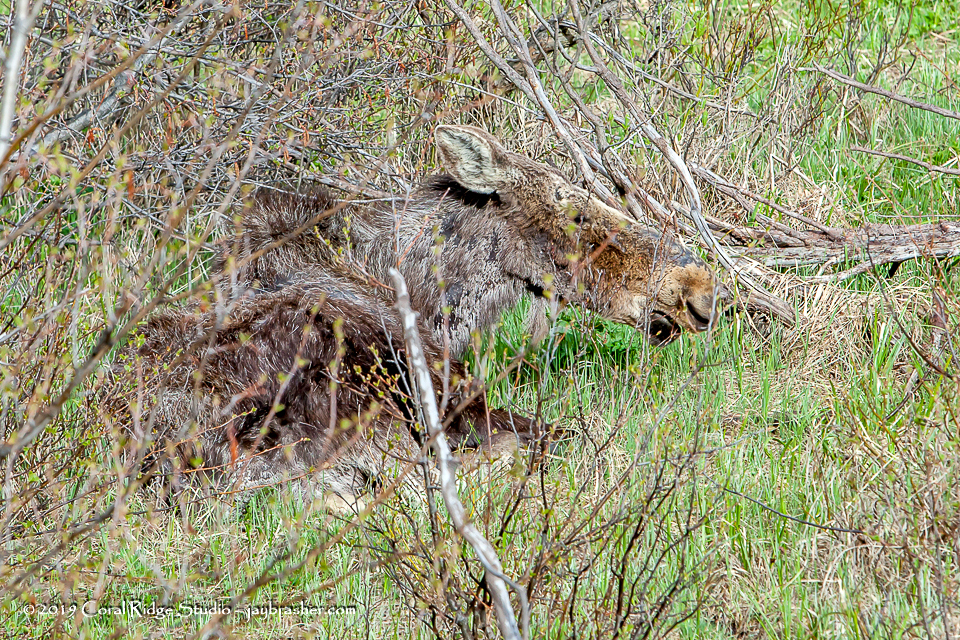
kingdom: Animalia
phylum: Chordata
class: Mammalia
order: Artiodactyla
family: Cervidae
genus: Alces
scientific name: Alces alces
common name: Moose
